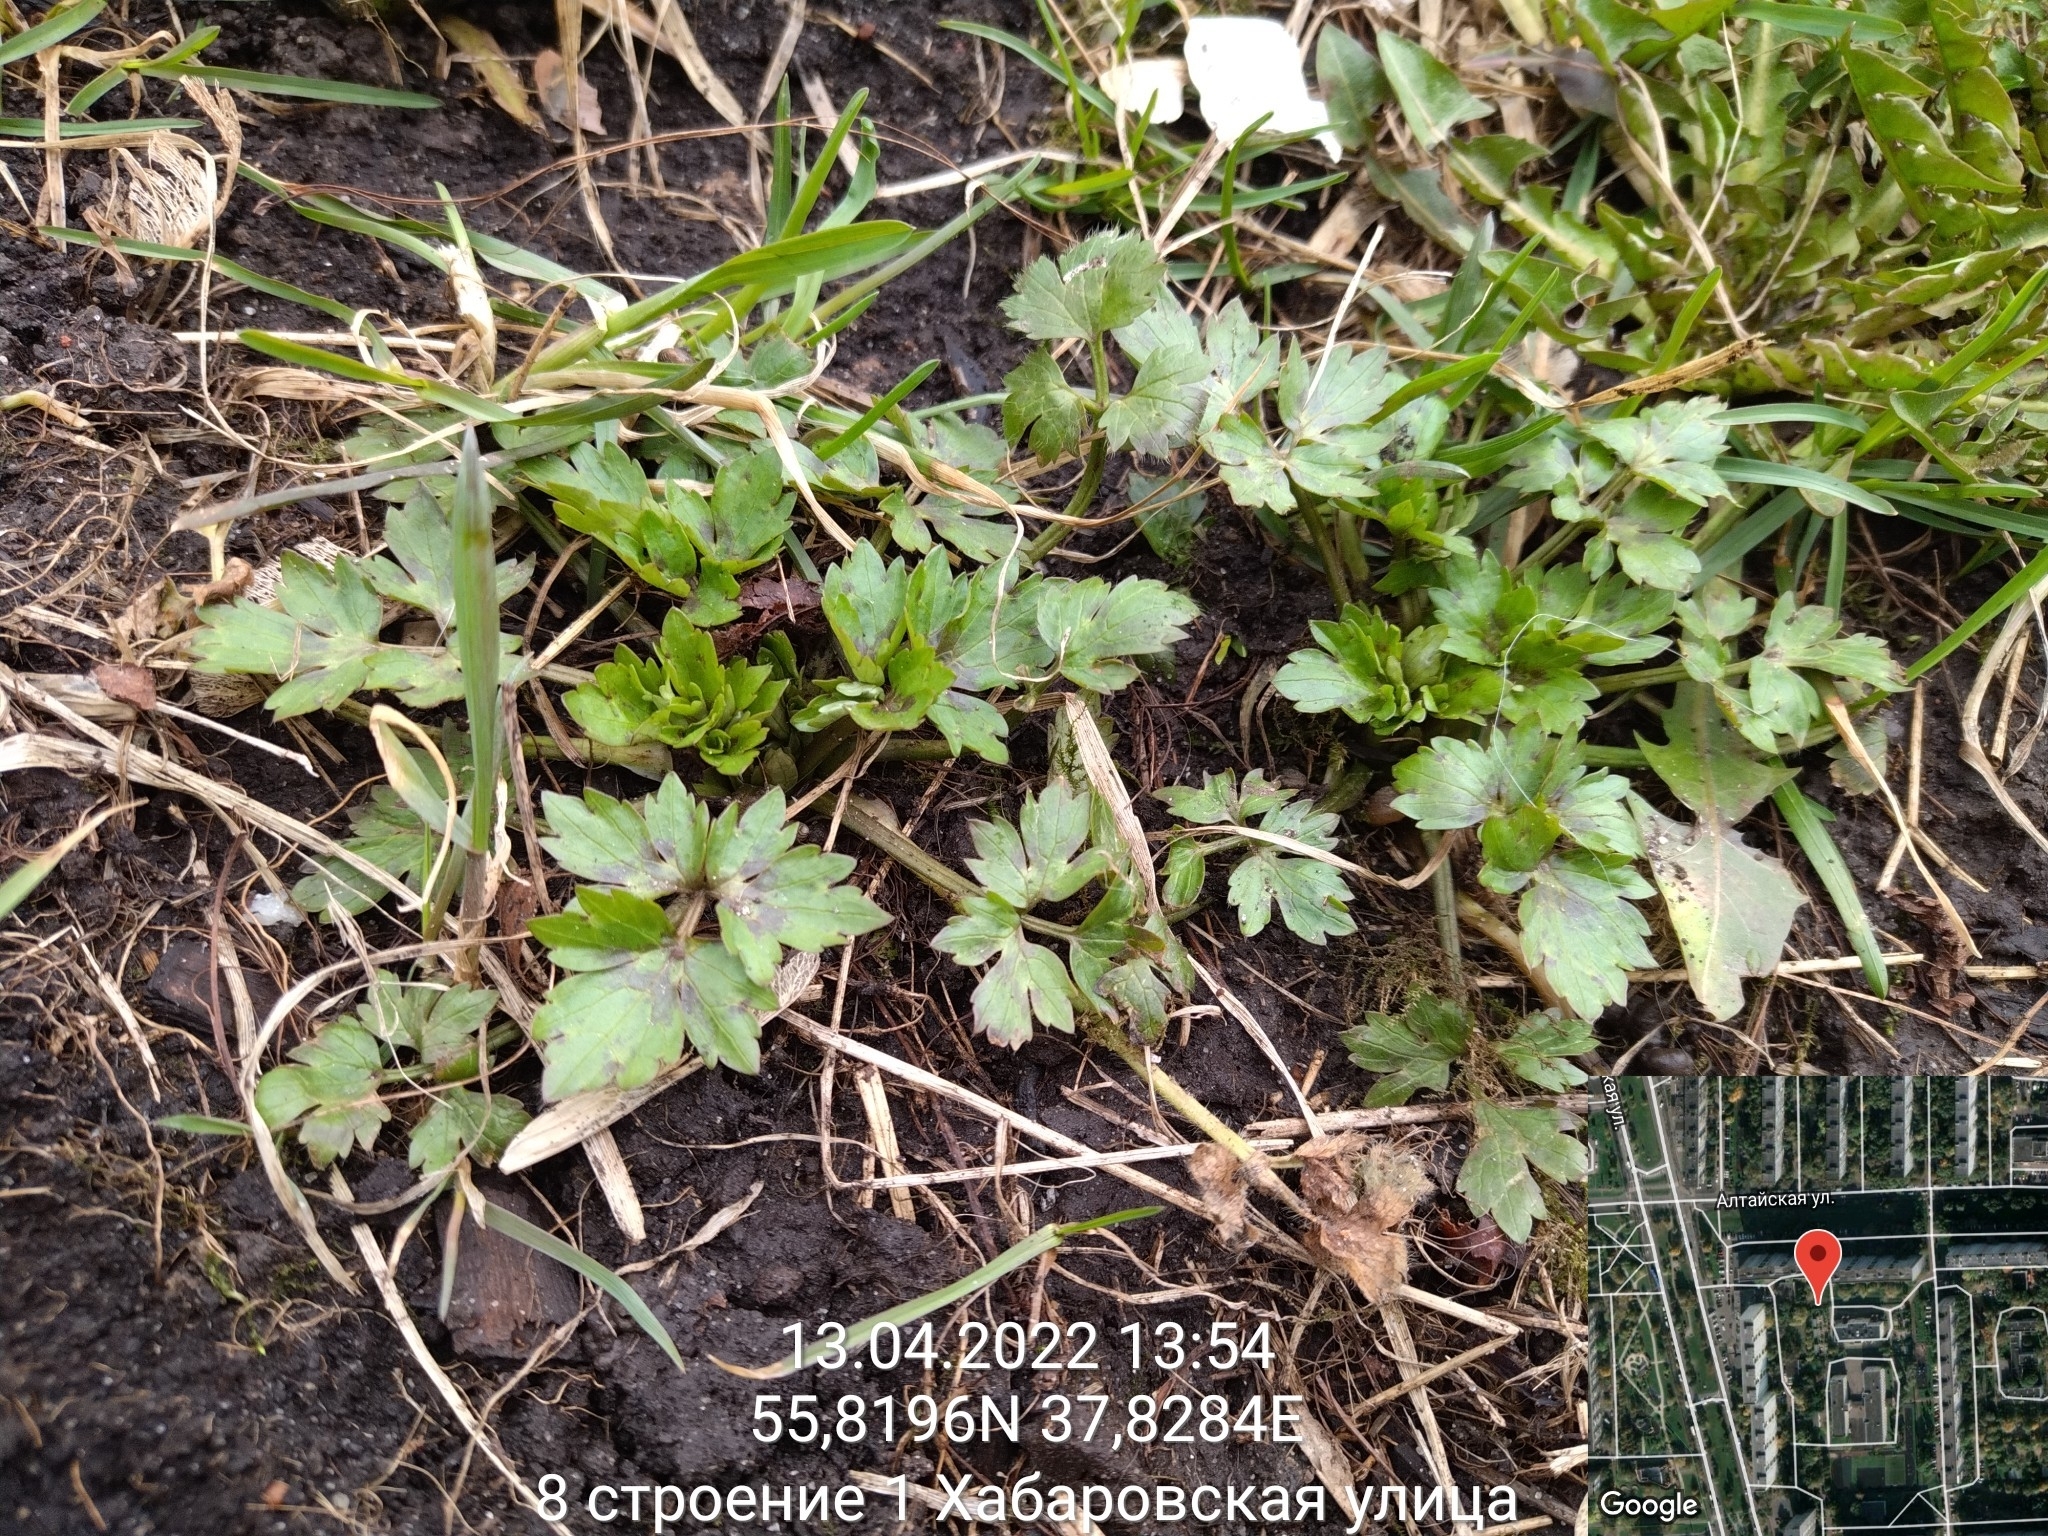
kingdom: Plantae
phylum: Tracheophyta
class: Magnoliopsida
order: Ranunculales
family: Ranunculaceae
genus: Ranunculus
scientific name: Ranunculus repens
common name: Creeping buttercup
